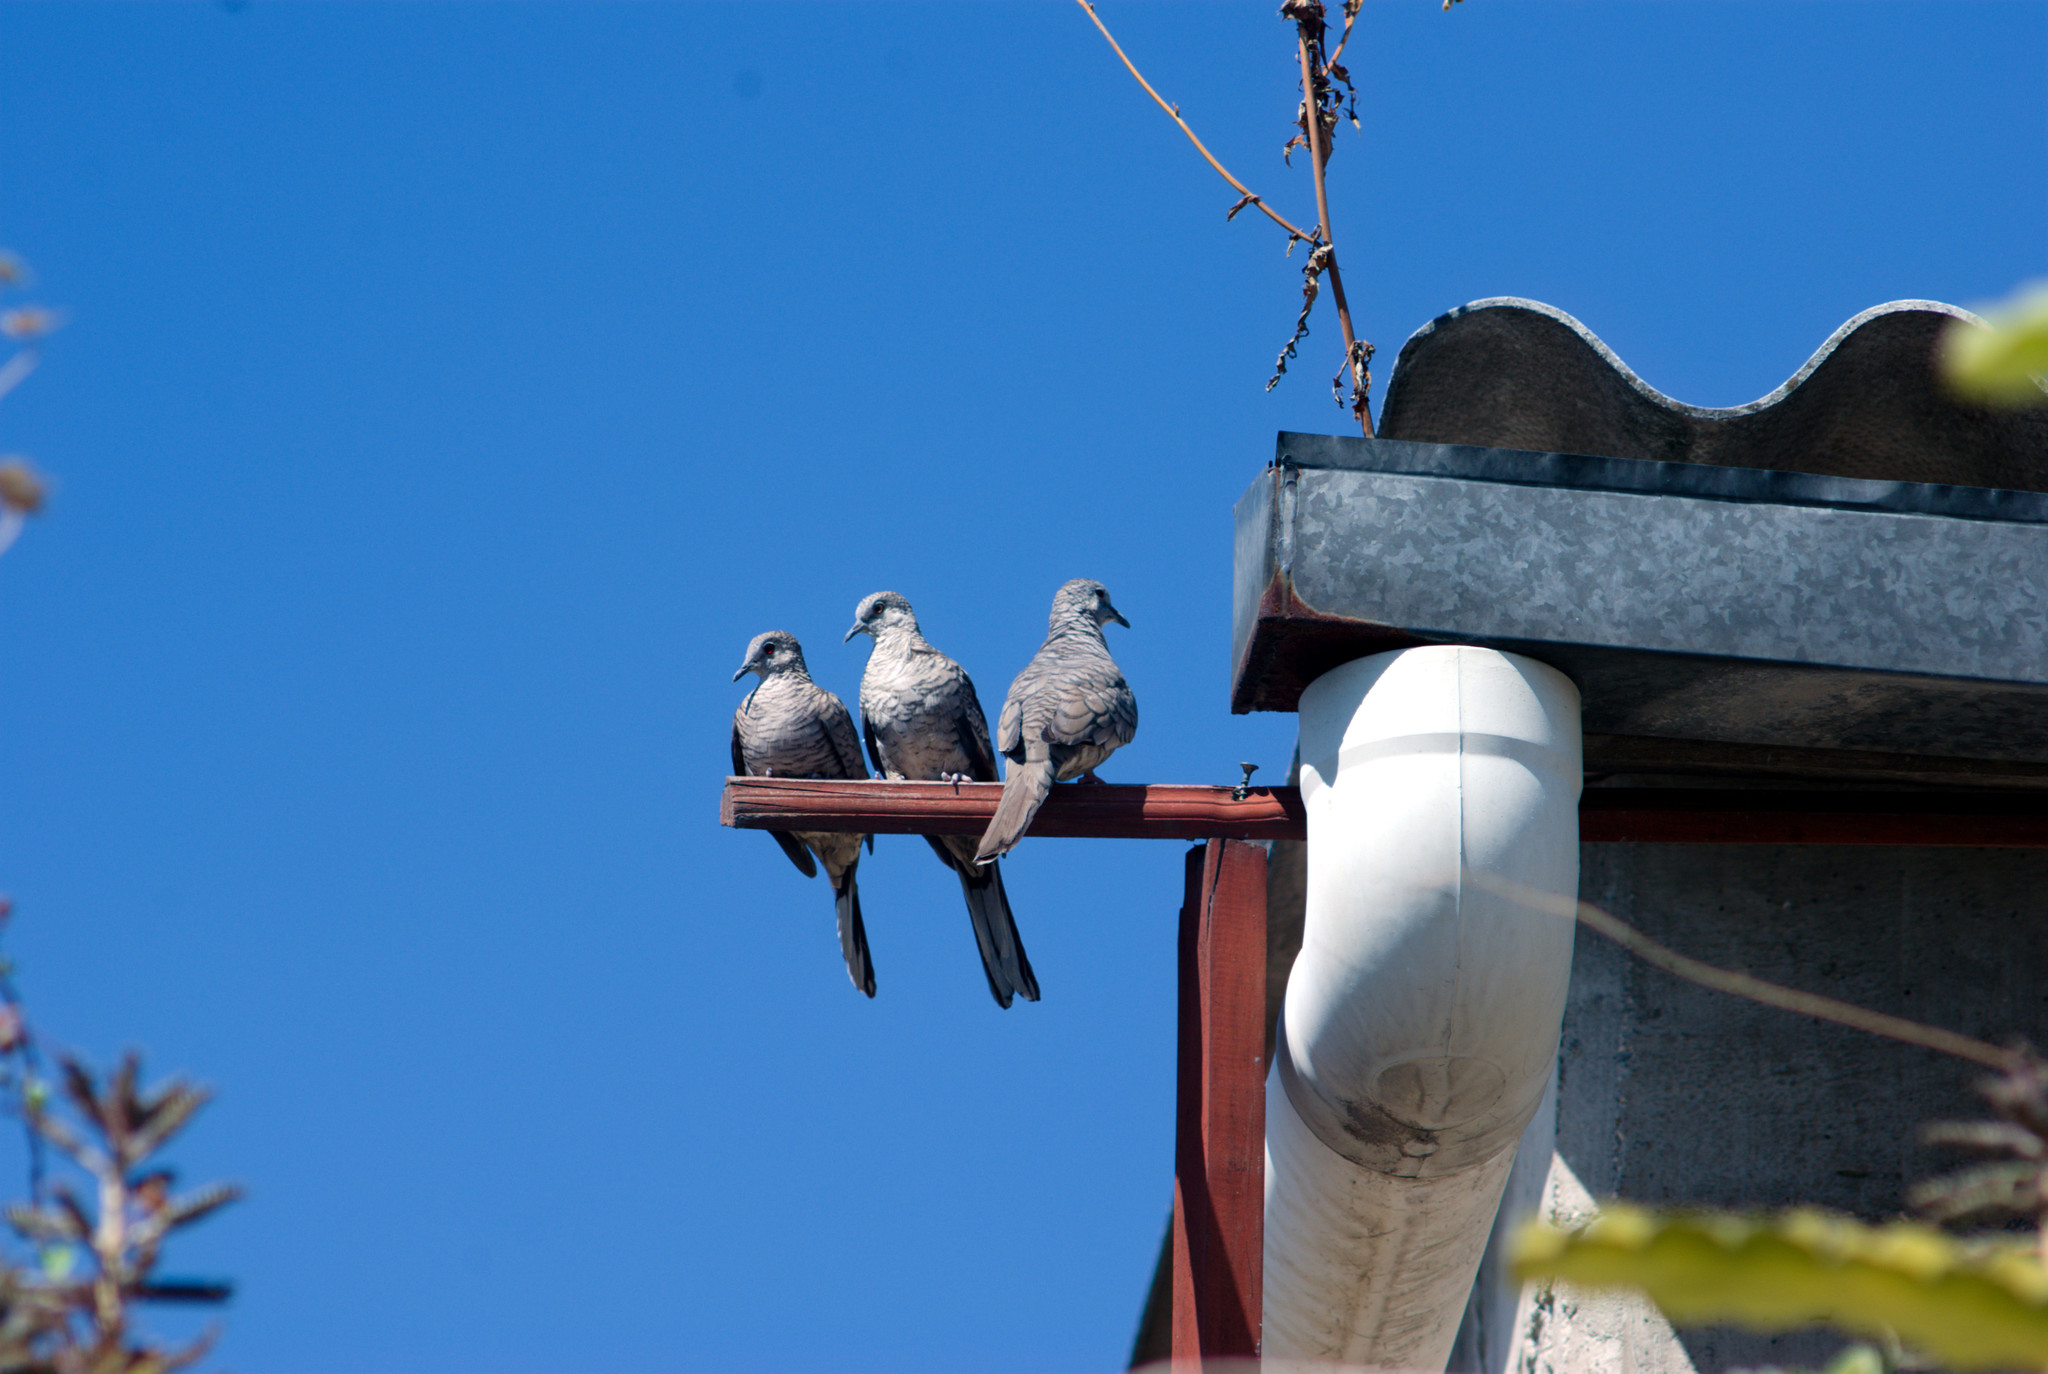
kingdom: Animalia
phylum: Chordata
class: Aves
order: Columbiformes
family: Columbidae
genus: Columbina
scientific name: Columbina inca
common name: Inca dove
